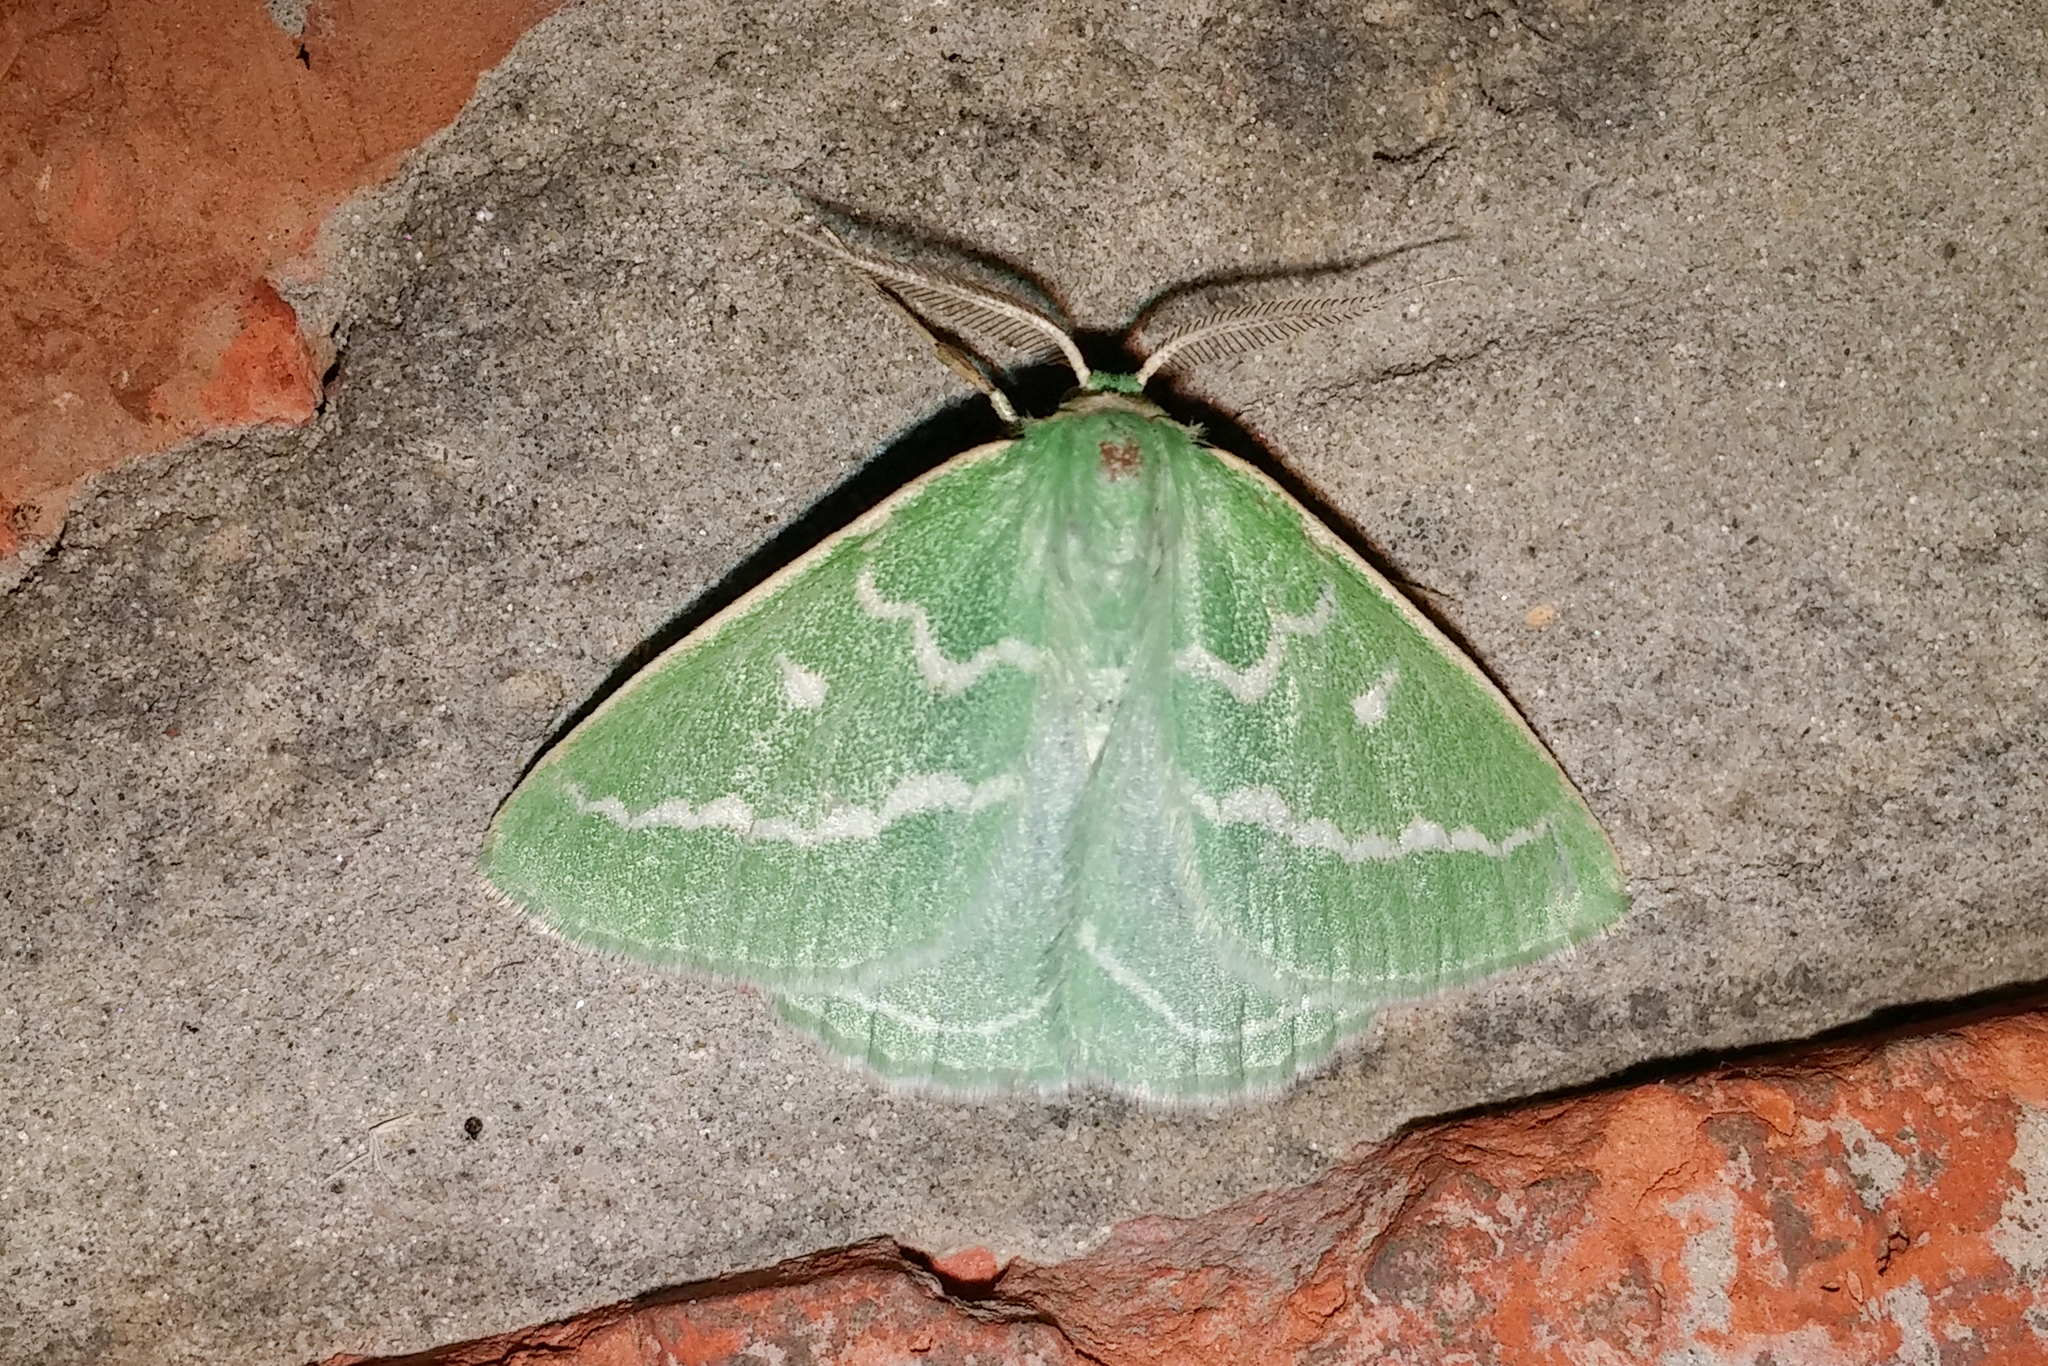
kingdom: Animalia
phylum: Arthropoda
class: Insecta
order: Lepidoptera
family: Geometridae
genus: Thetidia
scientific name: Thetidia smaragdaria
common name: Essex emerald
